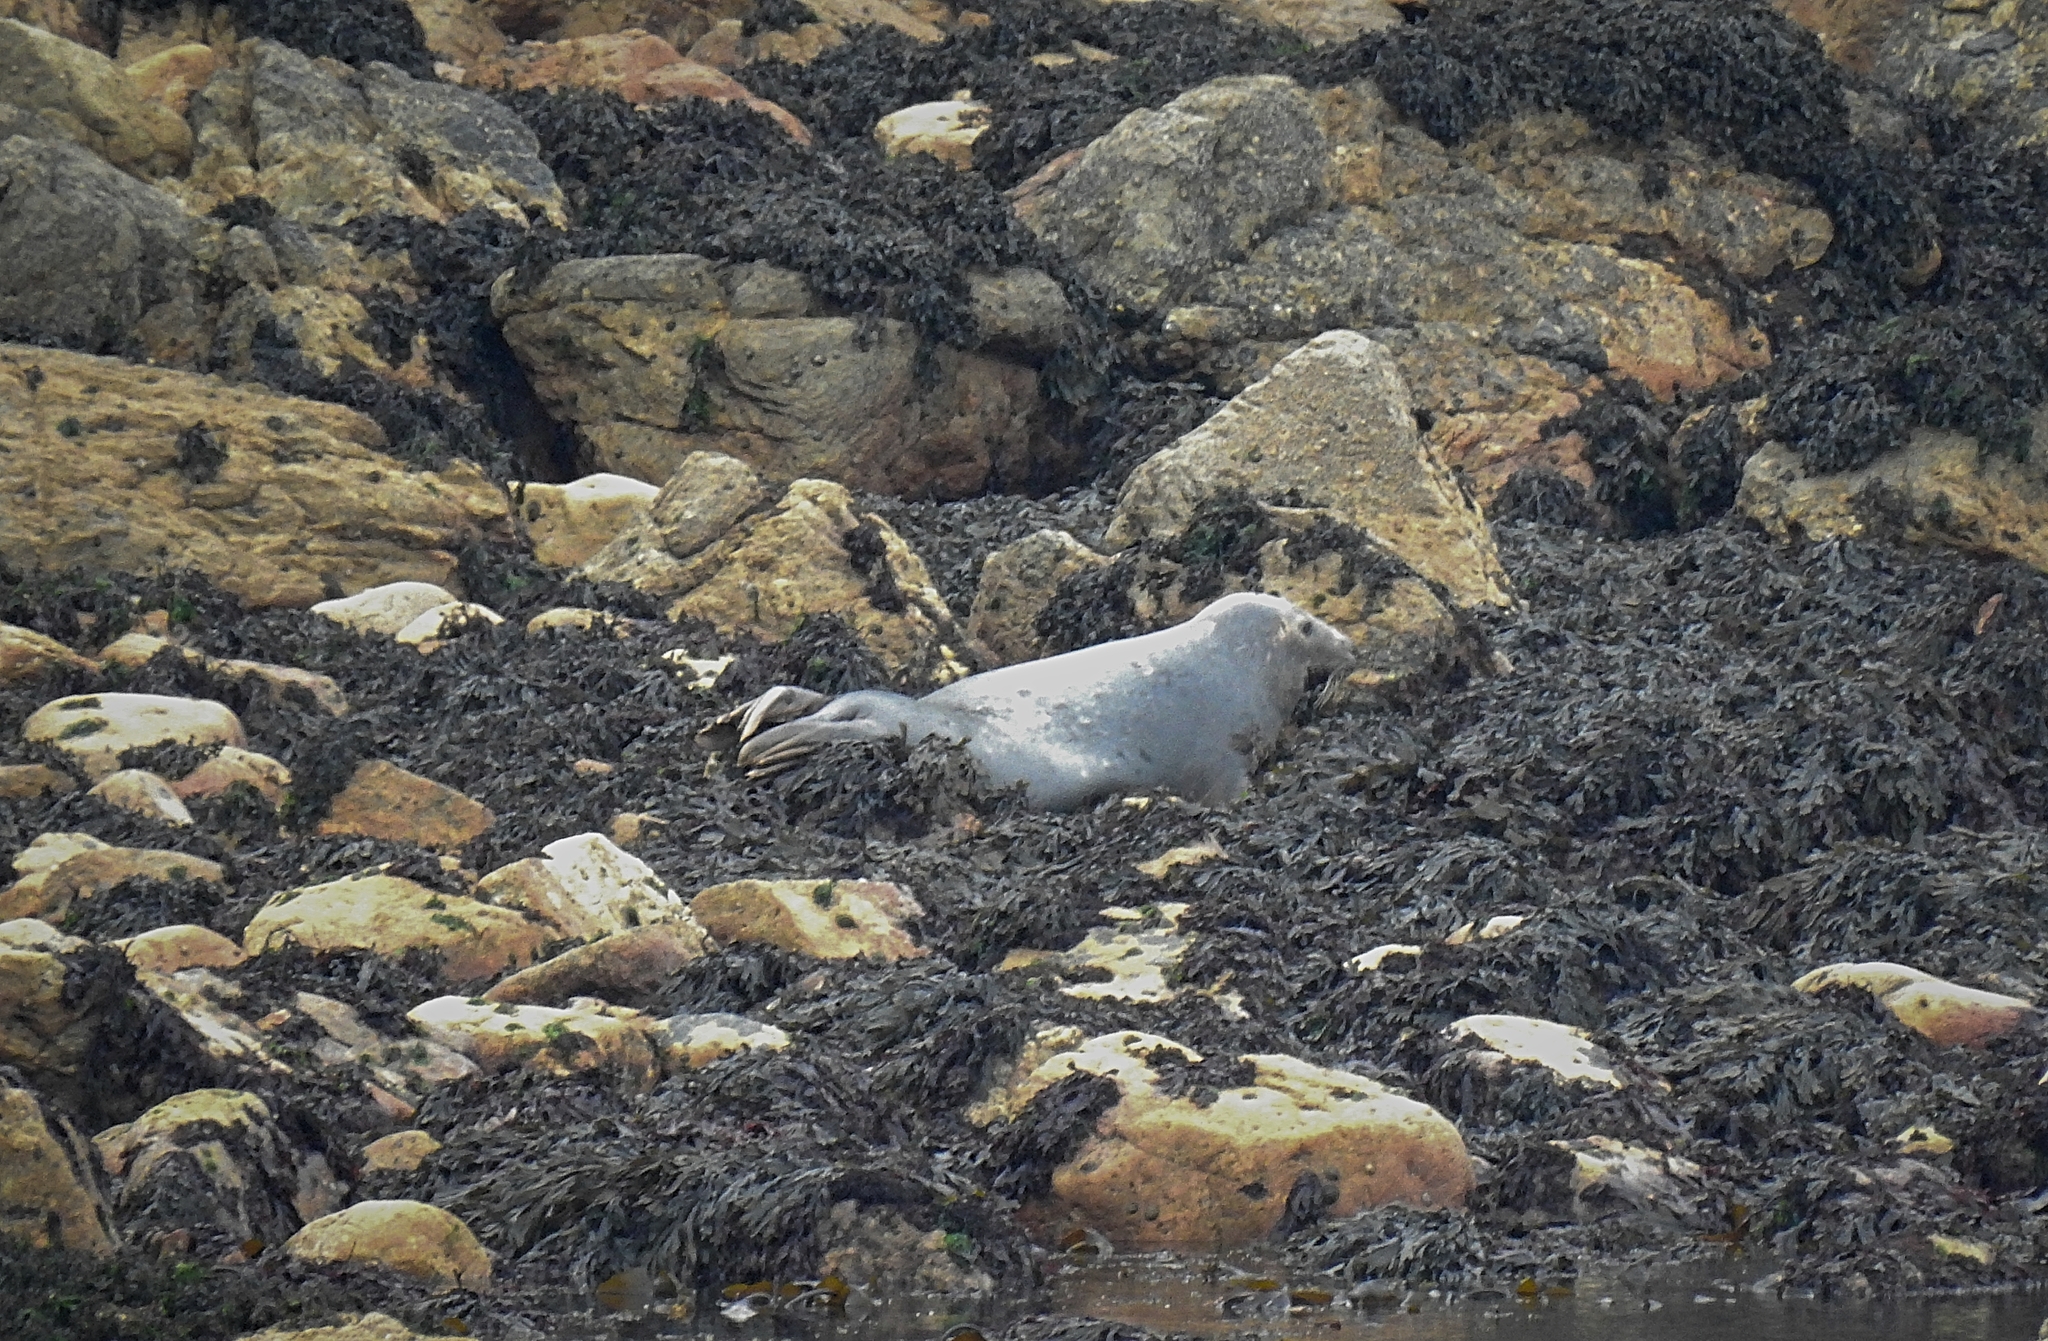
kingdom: Animalia
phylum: Chordata
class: Mammalia
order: Carnivora
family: Phocidae
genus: Halichoerus
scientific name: Halichoerus grypus
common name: Grey seal
